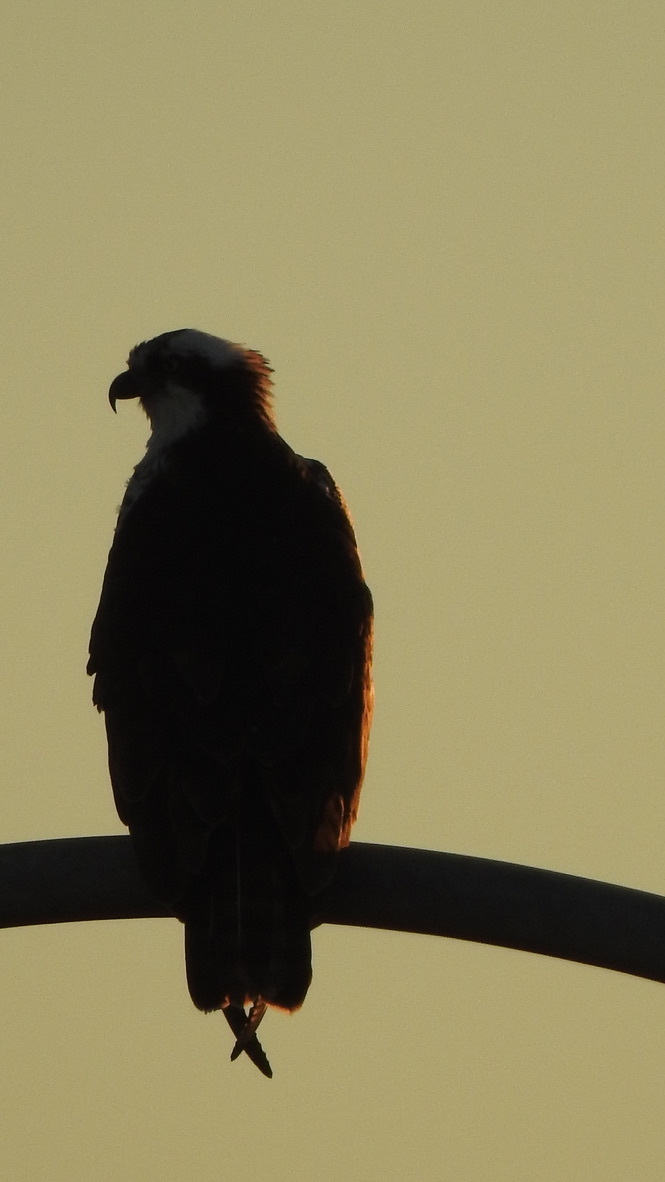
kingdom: Animalia
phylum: Chordata
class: Aves
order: Accipitriformes
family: Pandionidae
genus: Pandion
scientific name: Pandion haliaetus
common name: Osprey
